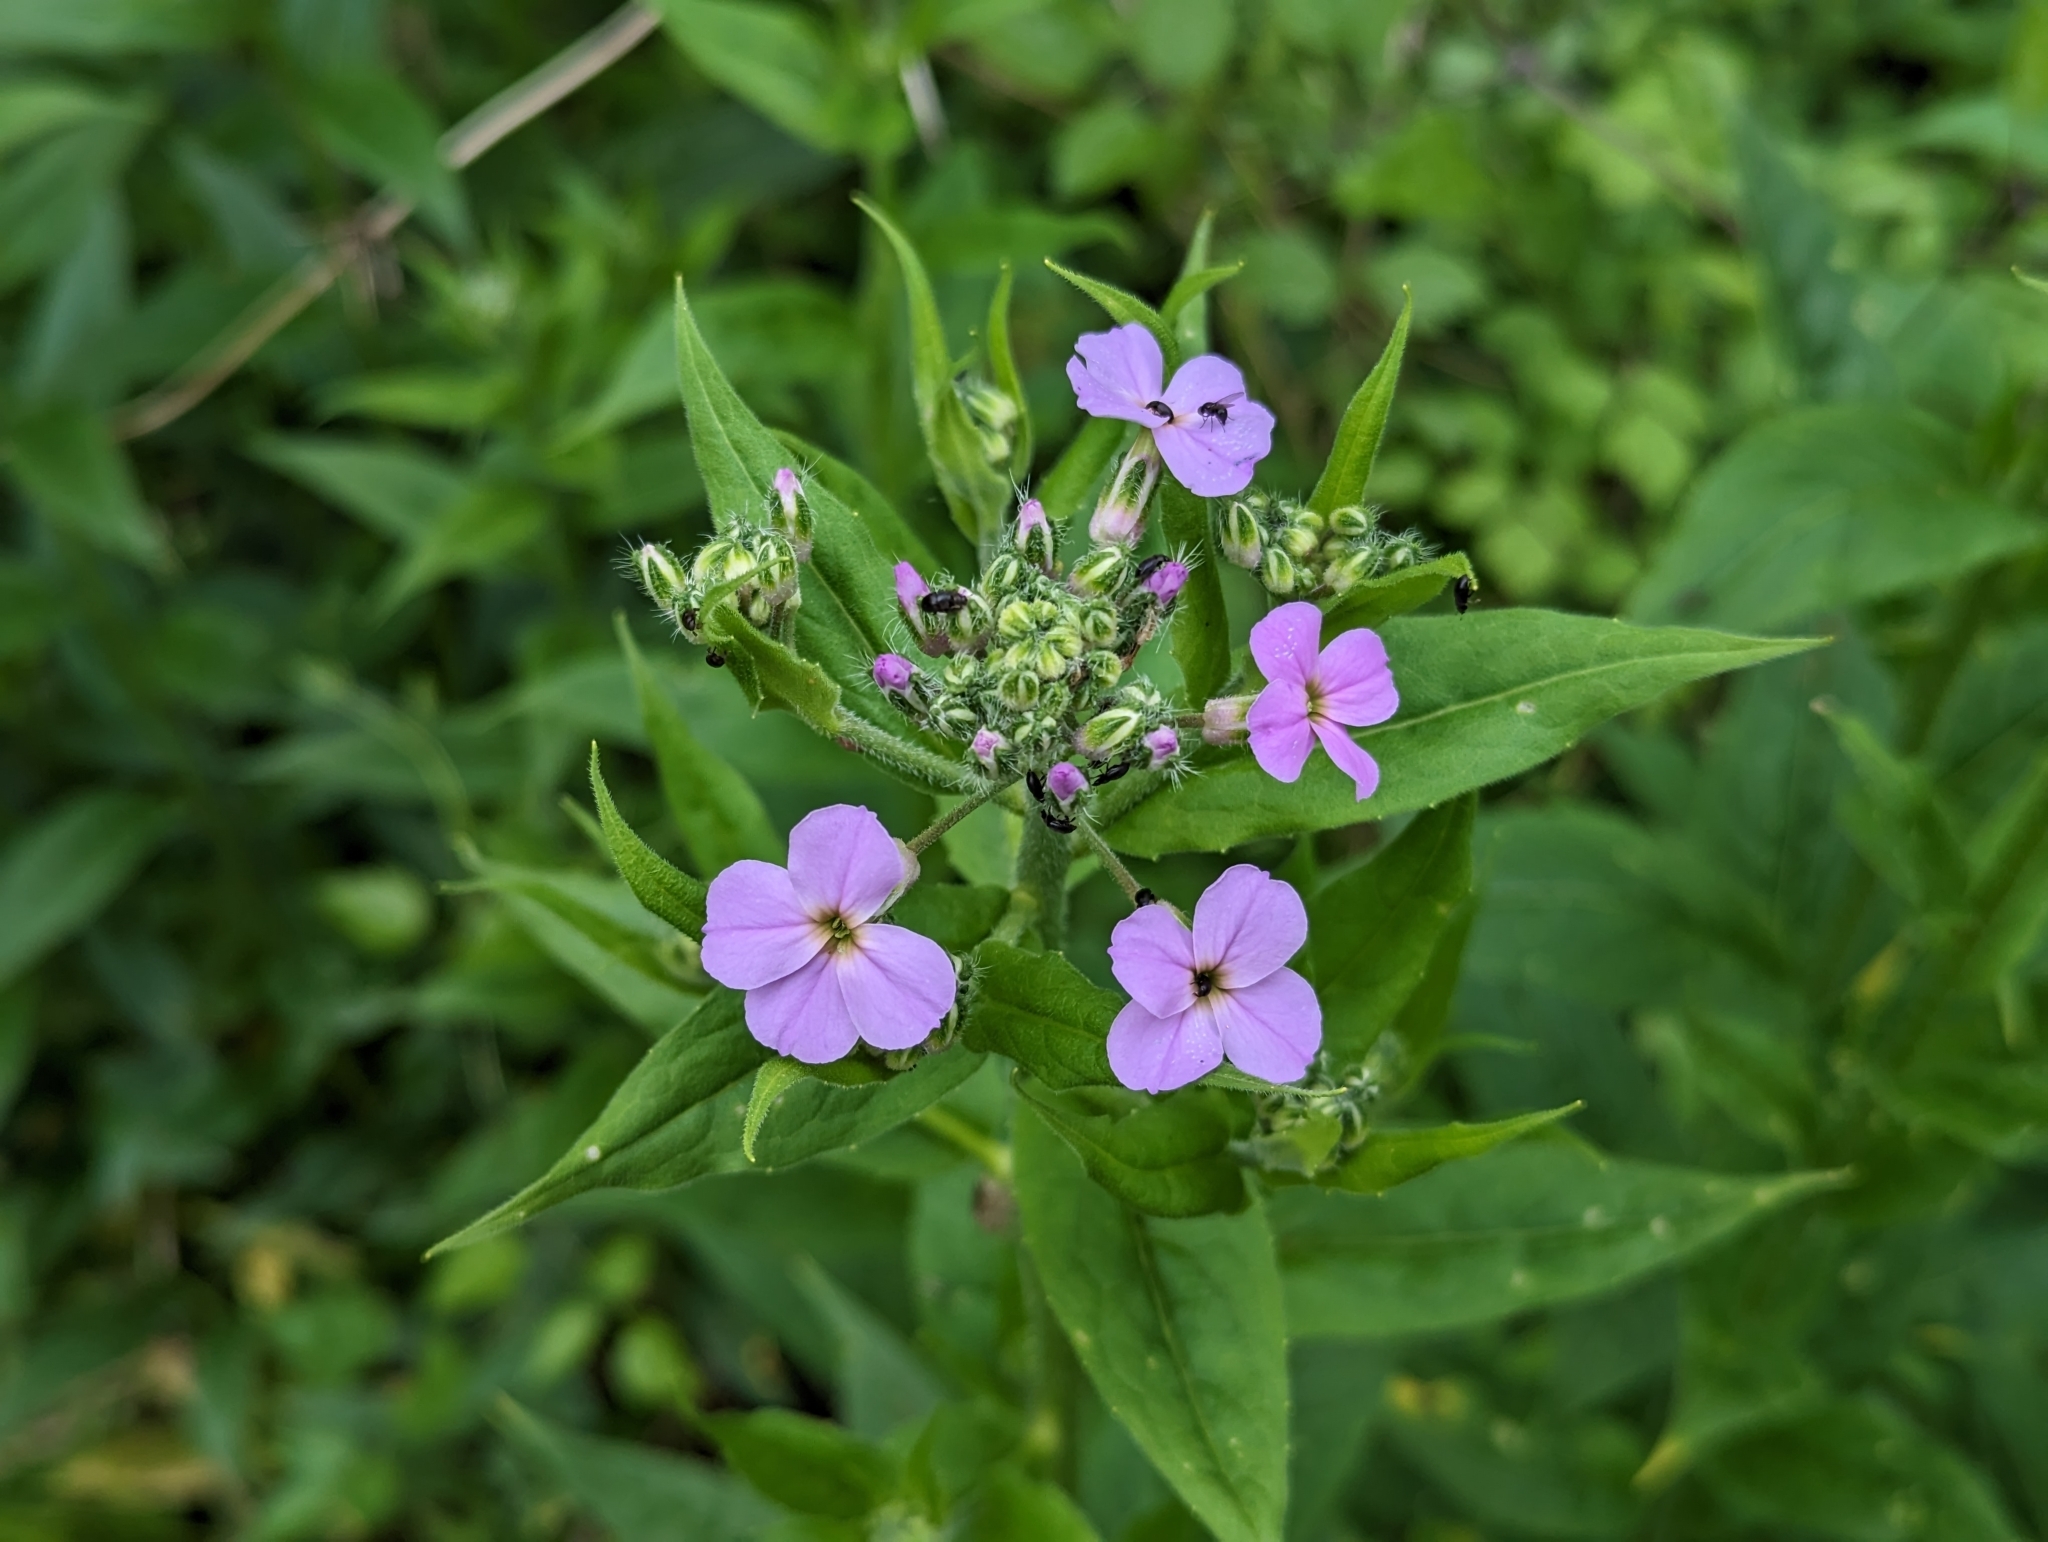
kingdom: Plantae
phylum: Tracheophyta
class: Magnoliopsida
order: Brassicales
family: Brassicaceae
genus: Hesperis
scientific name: Hesperis matronalis
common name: Dame's-violet
